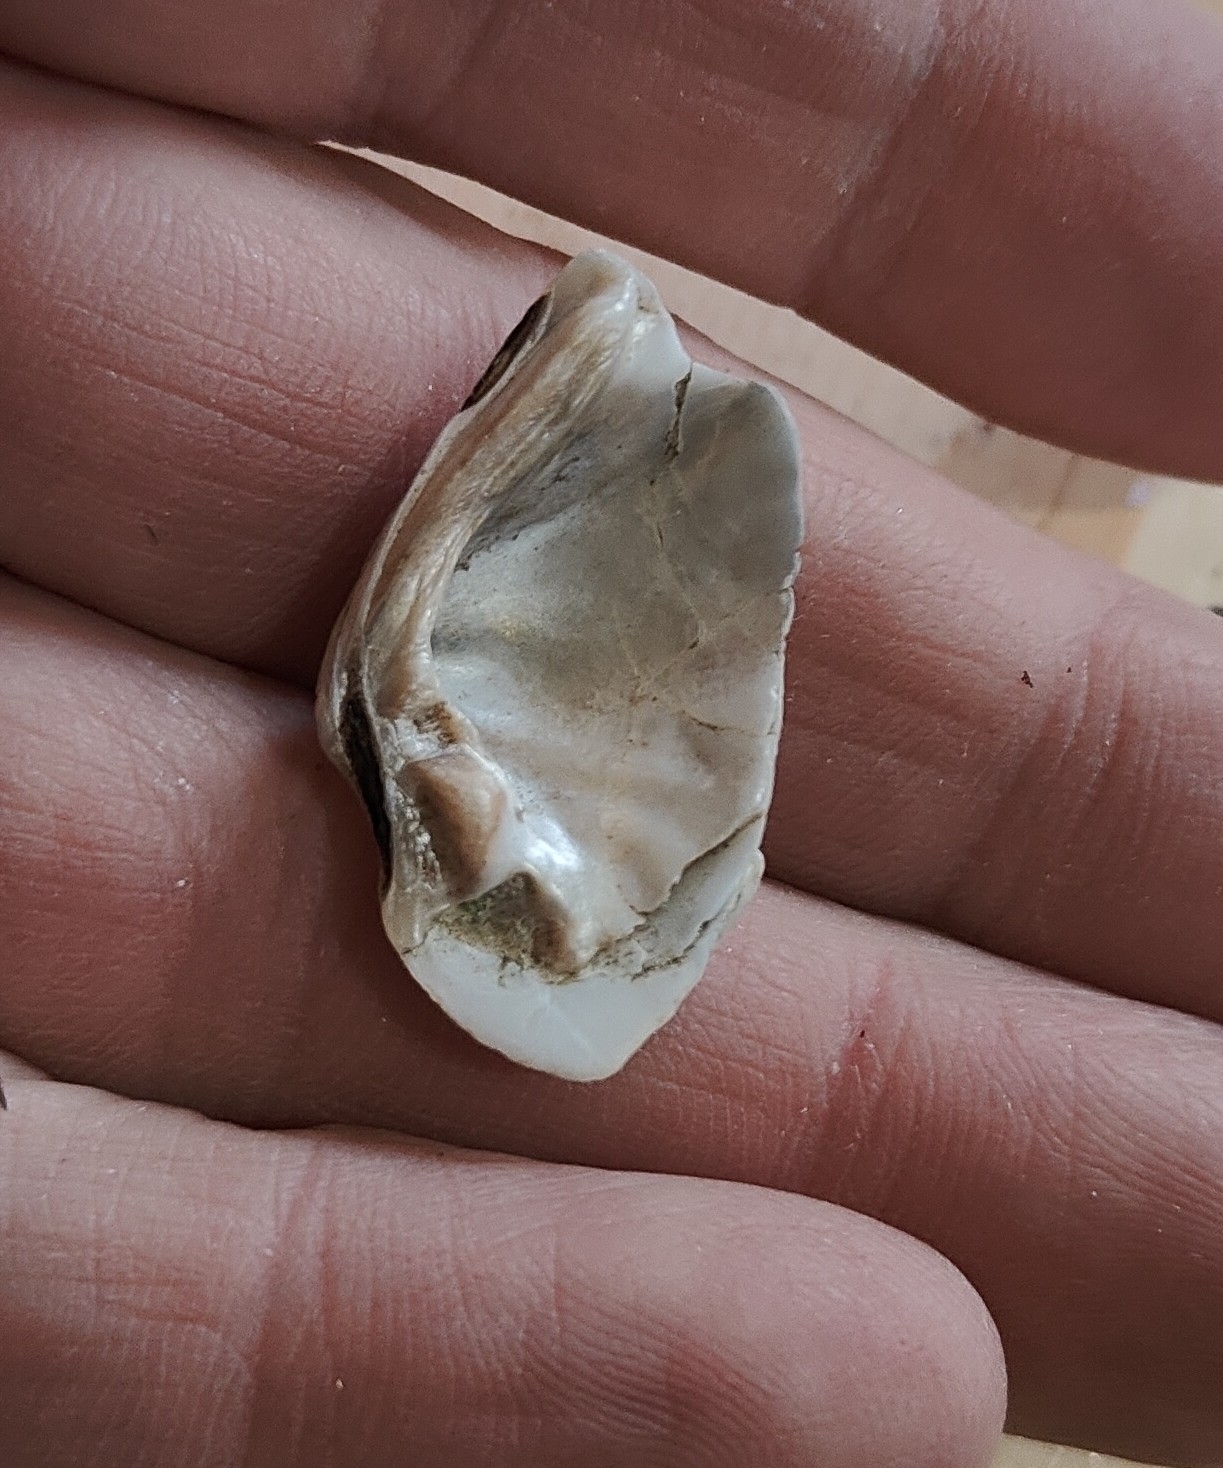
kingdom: Animalia
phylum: Mollusca
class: Bivalvia
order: Unionida
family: Unionidae
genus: Fusconaia
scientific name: Fusconaia flava
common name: Wabash pigtoe
